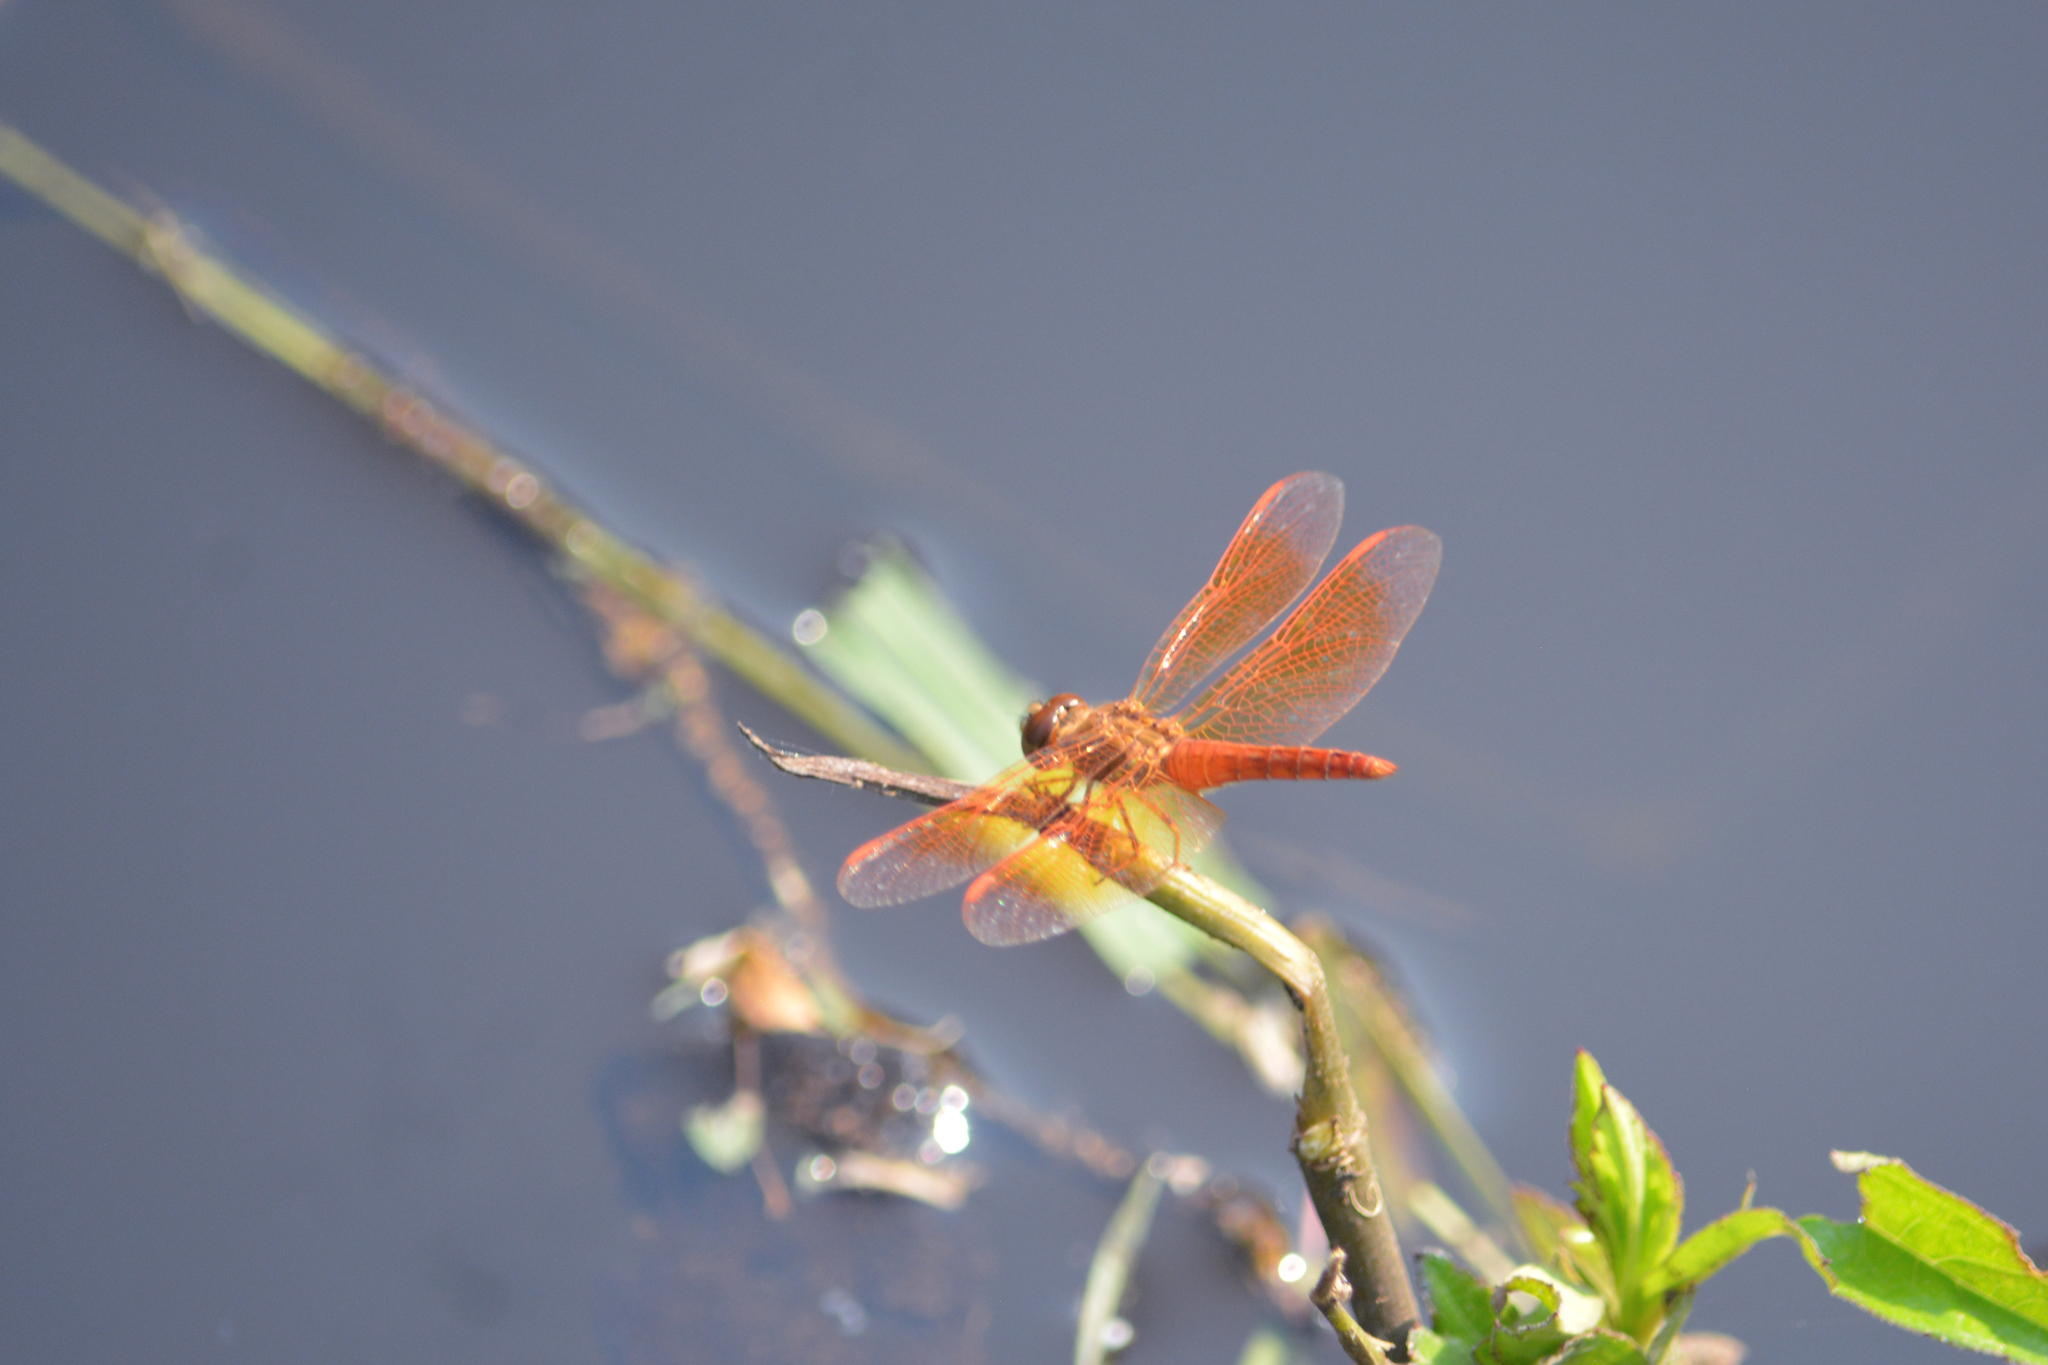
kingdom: Animalia
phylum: Arthropoda
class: Insecta
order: Odonata
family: Libellulidae
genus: Brachythemis
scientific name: Brachythemis contaminata
